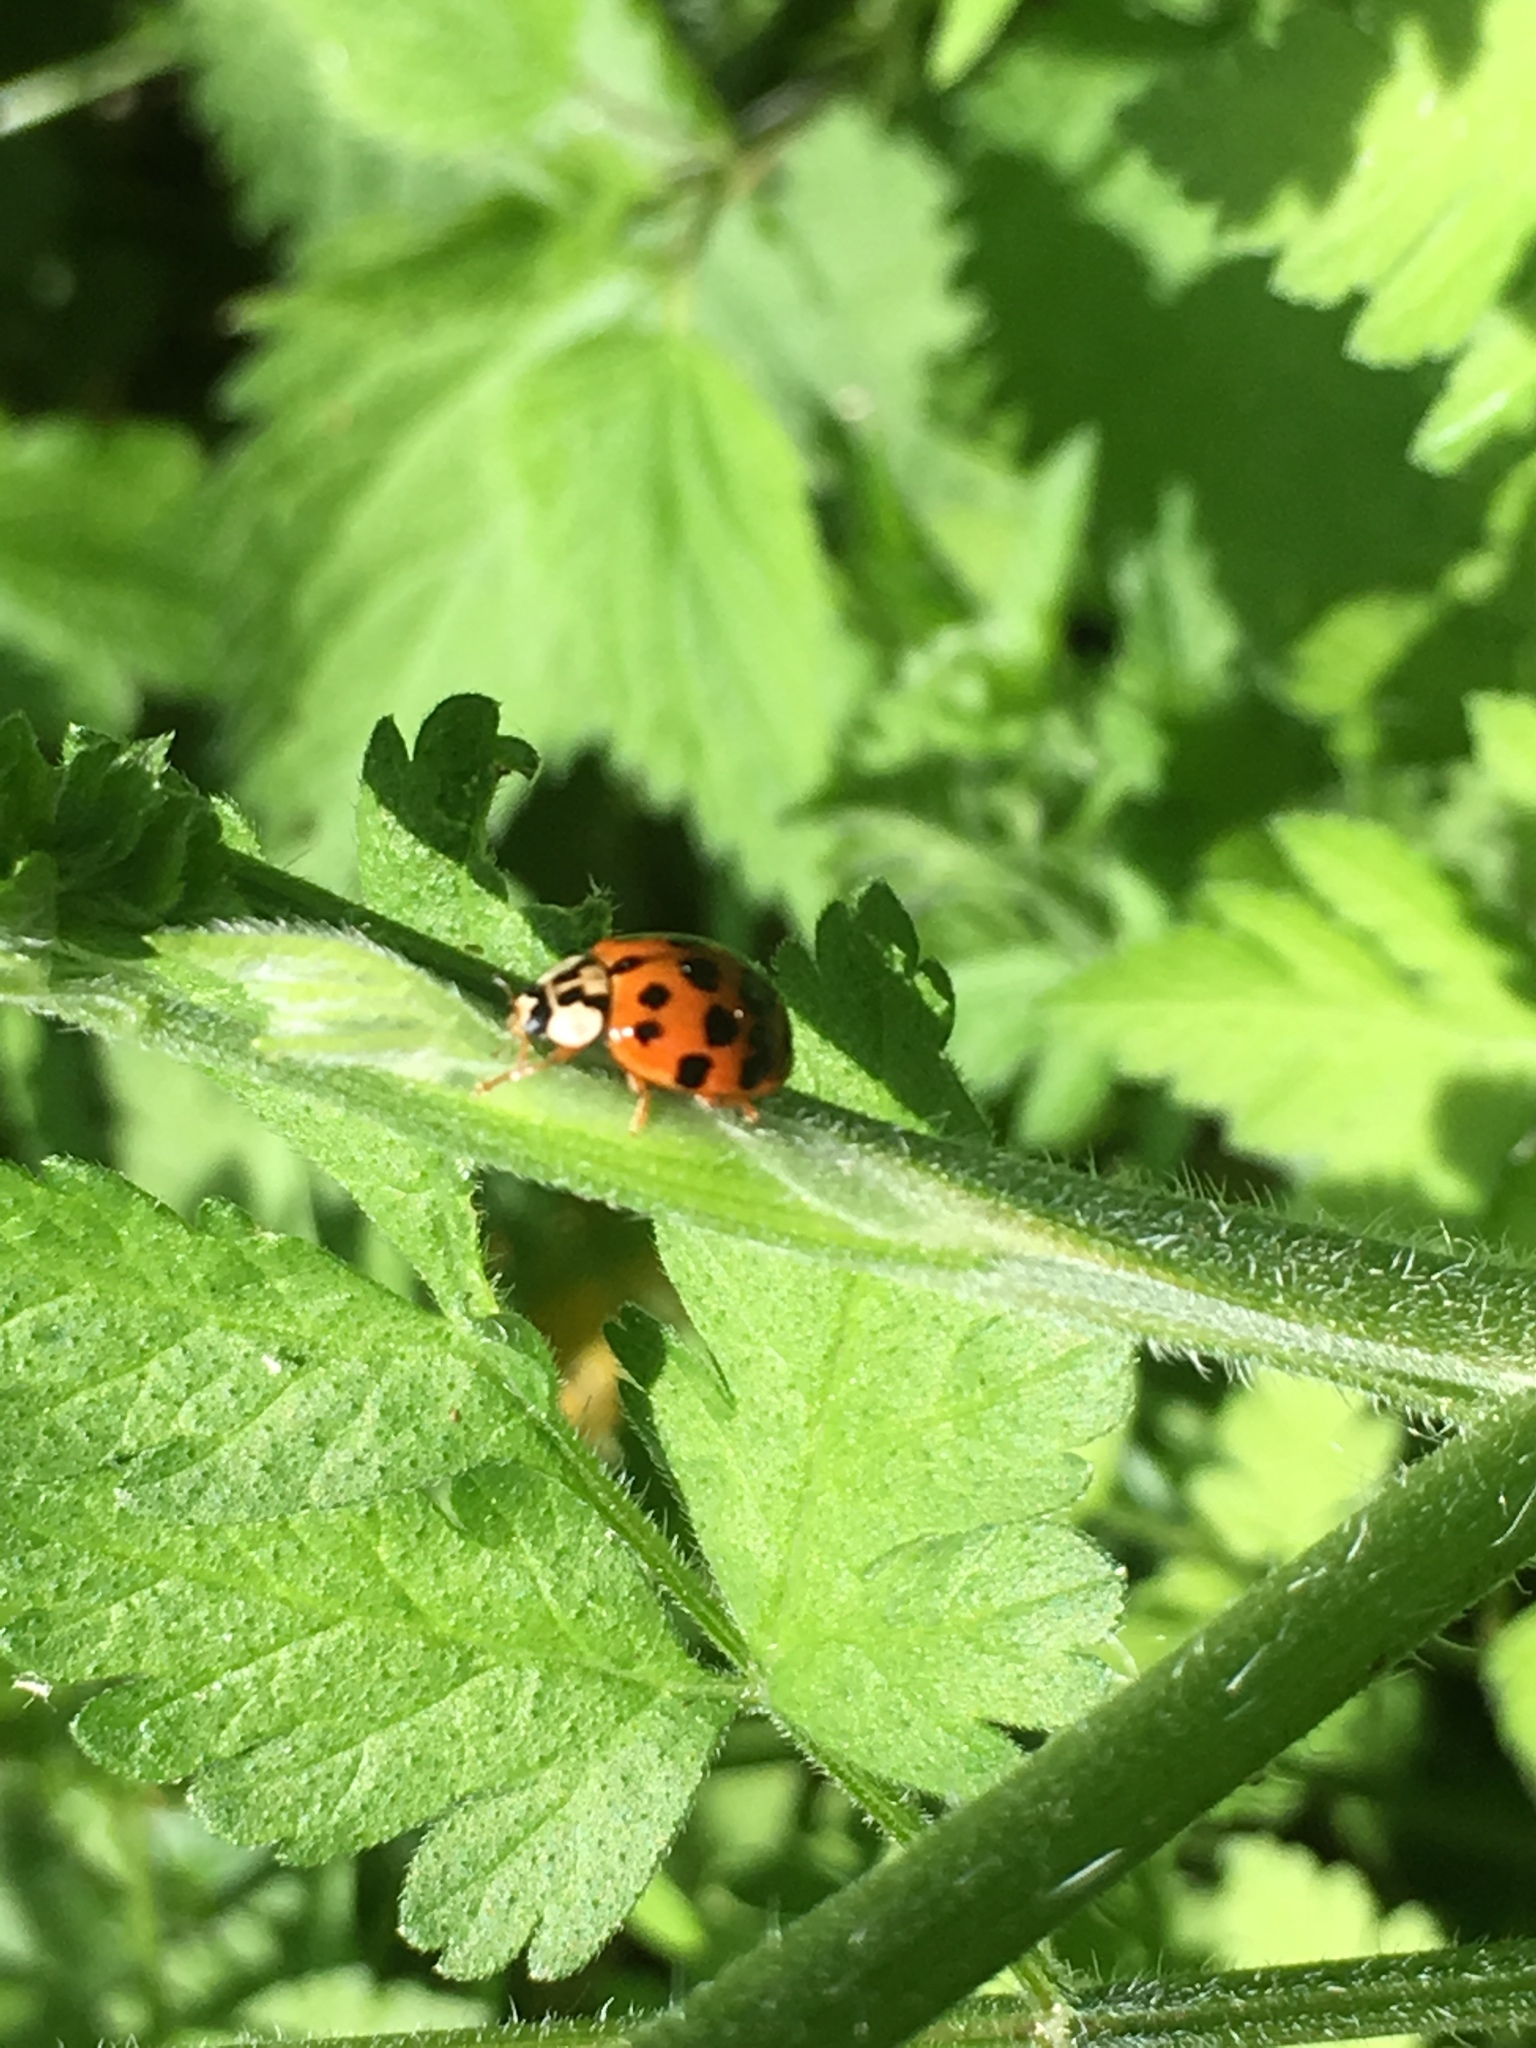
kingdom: Animalia
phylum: Arthropoda
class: Insecta
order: Coleoptera
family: Coccinellidae
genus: Harmonia
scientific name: Harmonia axyridis
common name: Harlequin ladybird
